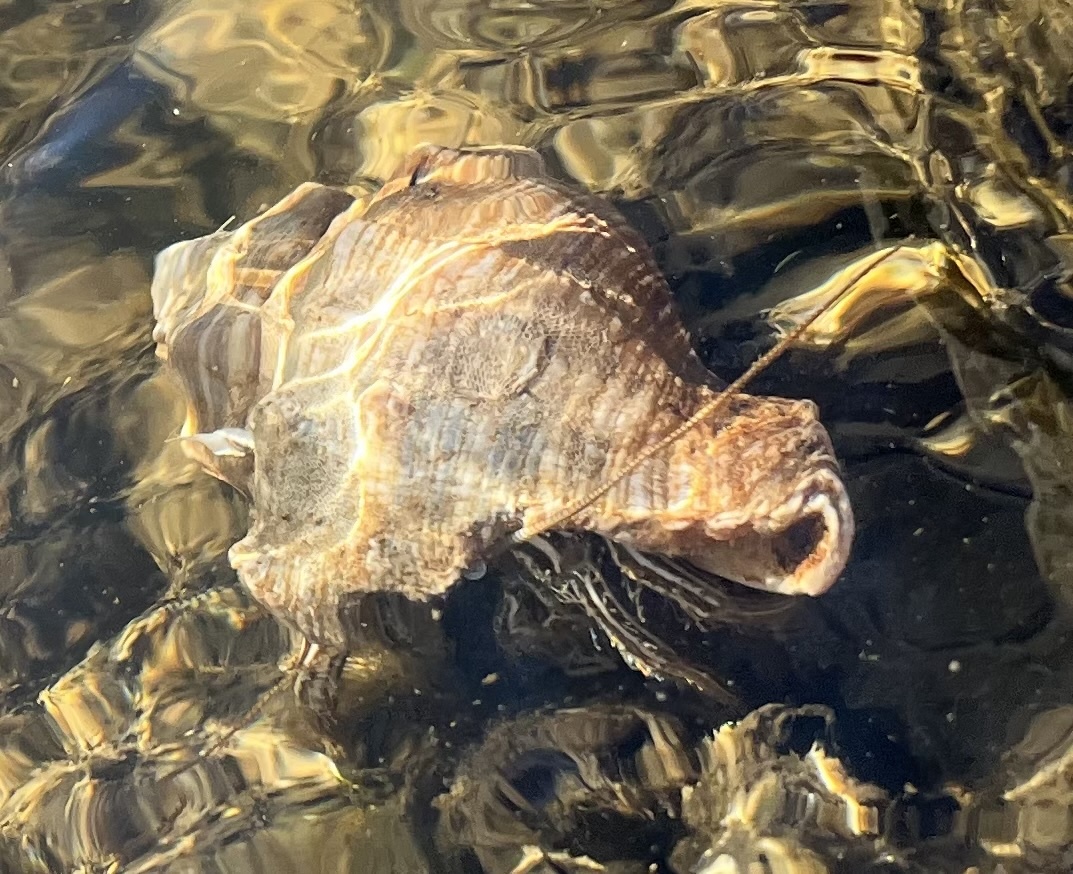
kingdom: Animalia
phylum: Arthropoda
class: Malacostraca
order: Decapoda
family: Diogenidae
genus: Clibanarius
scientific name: Clibanarius vittatus
